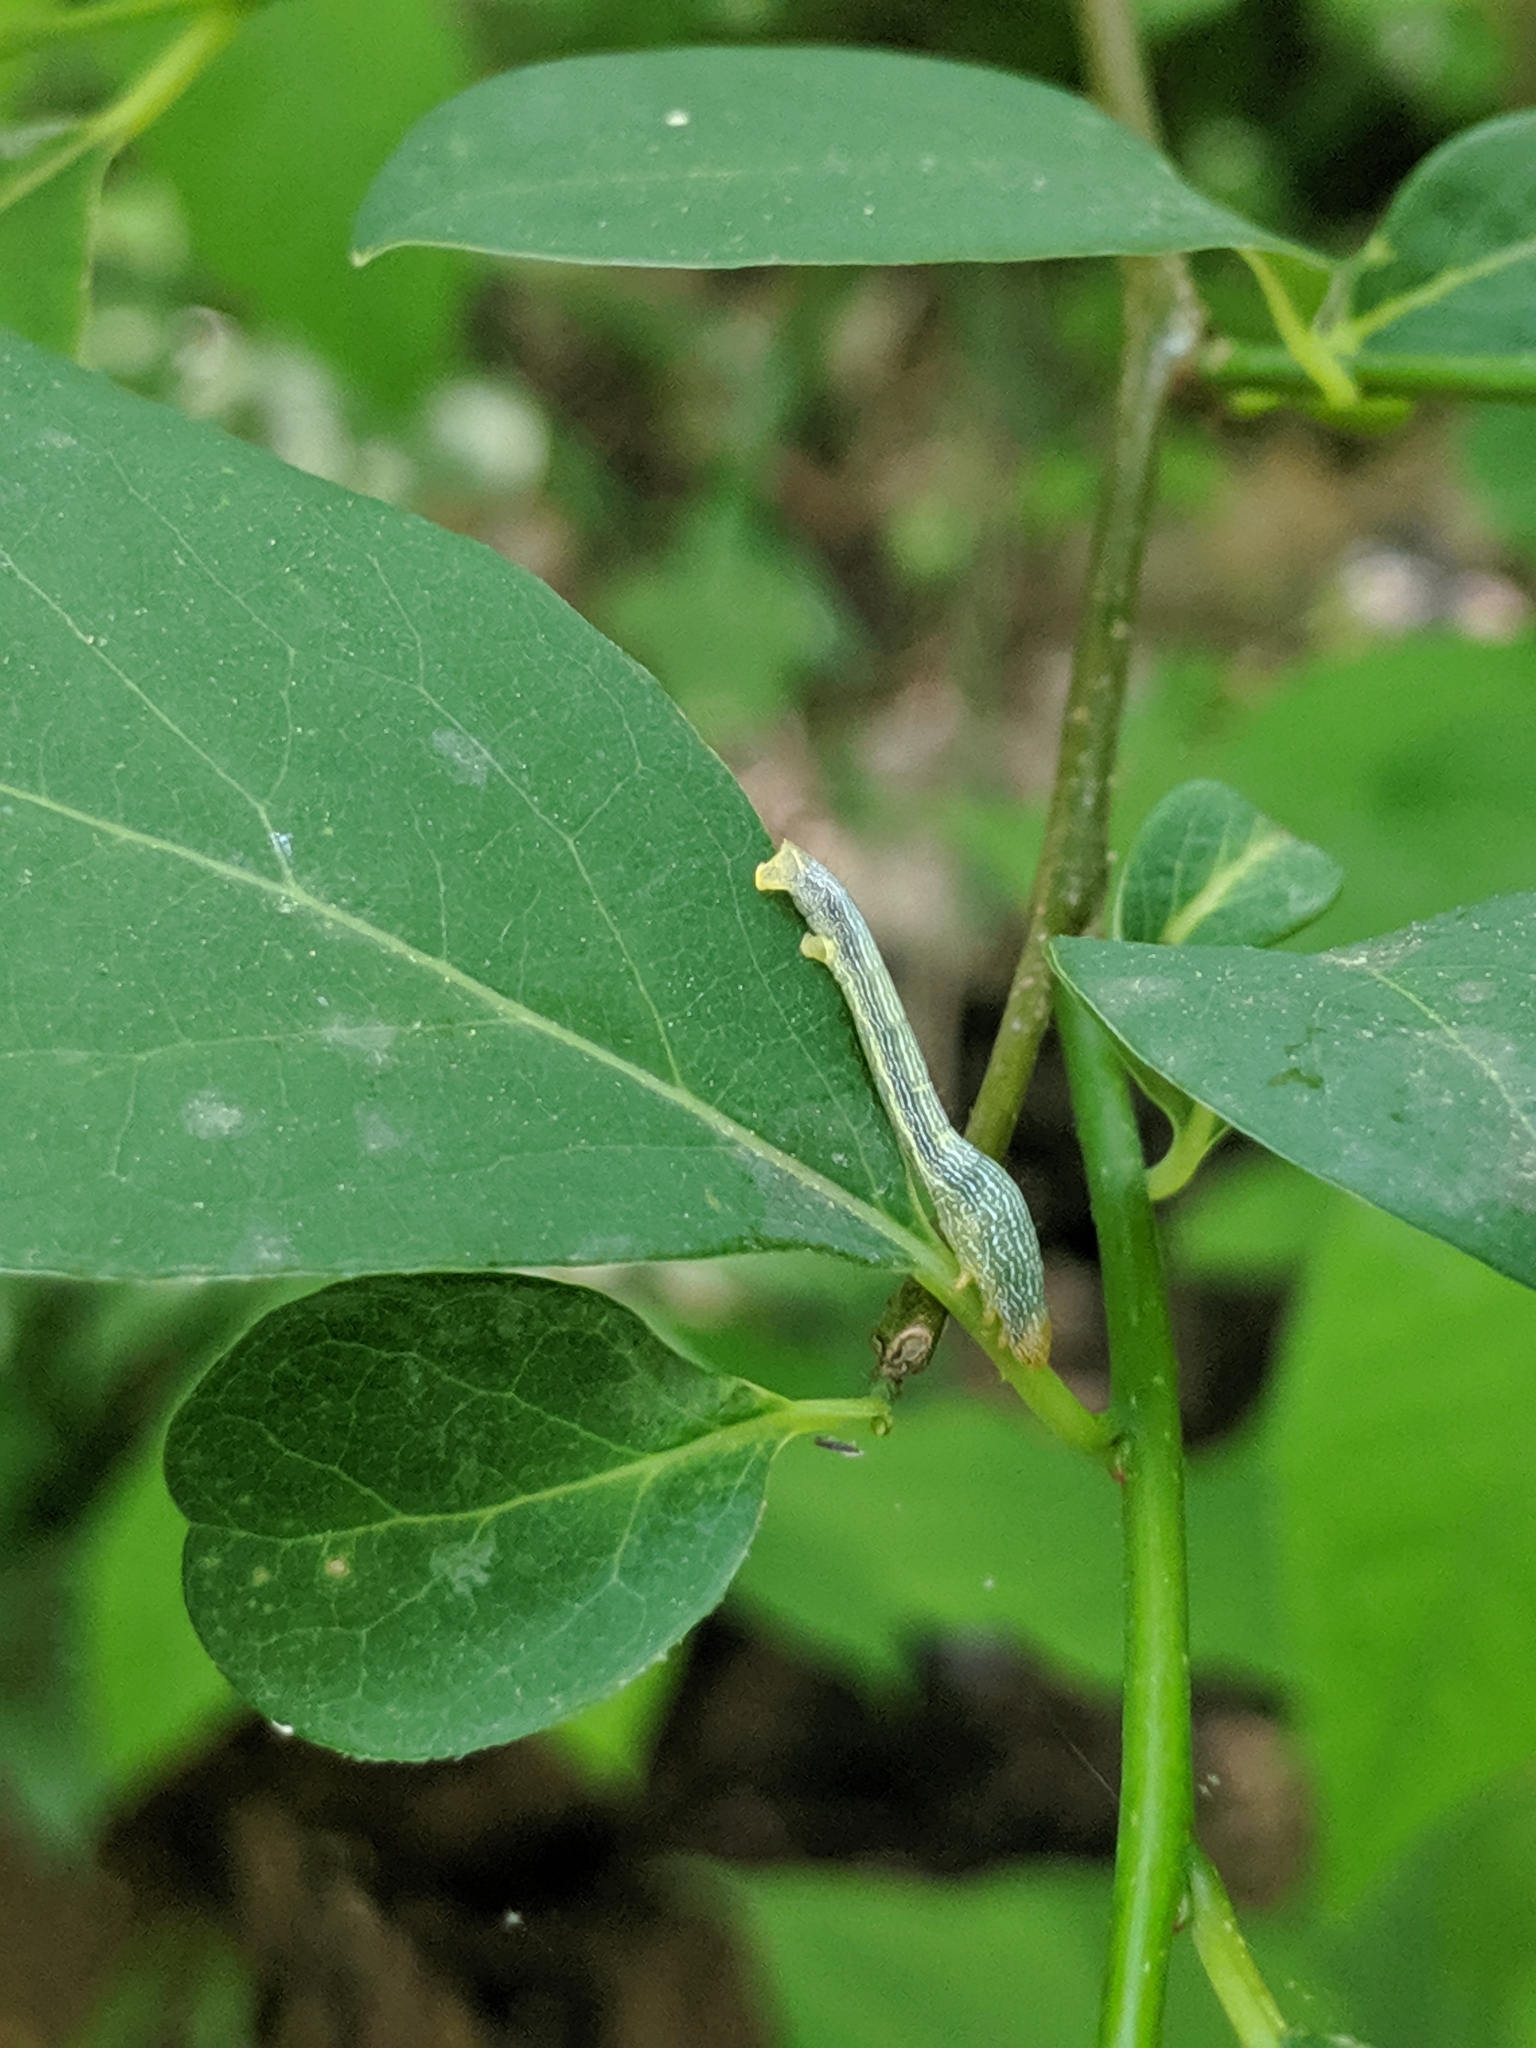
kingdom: Animalia
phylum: Arthropoda
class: Insecta
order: Lepidoptera
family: Geometridae
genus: Epimecis
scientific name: Epimecis hortaria
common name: Tulip-tree beauty
